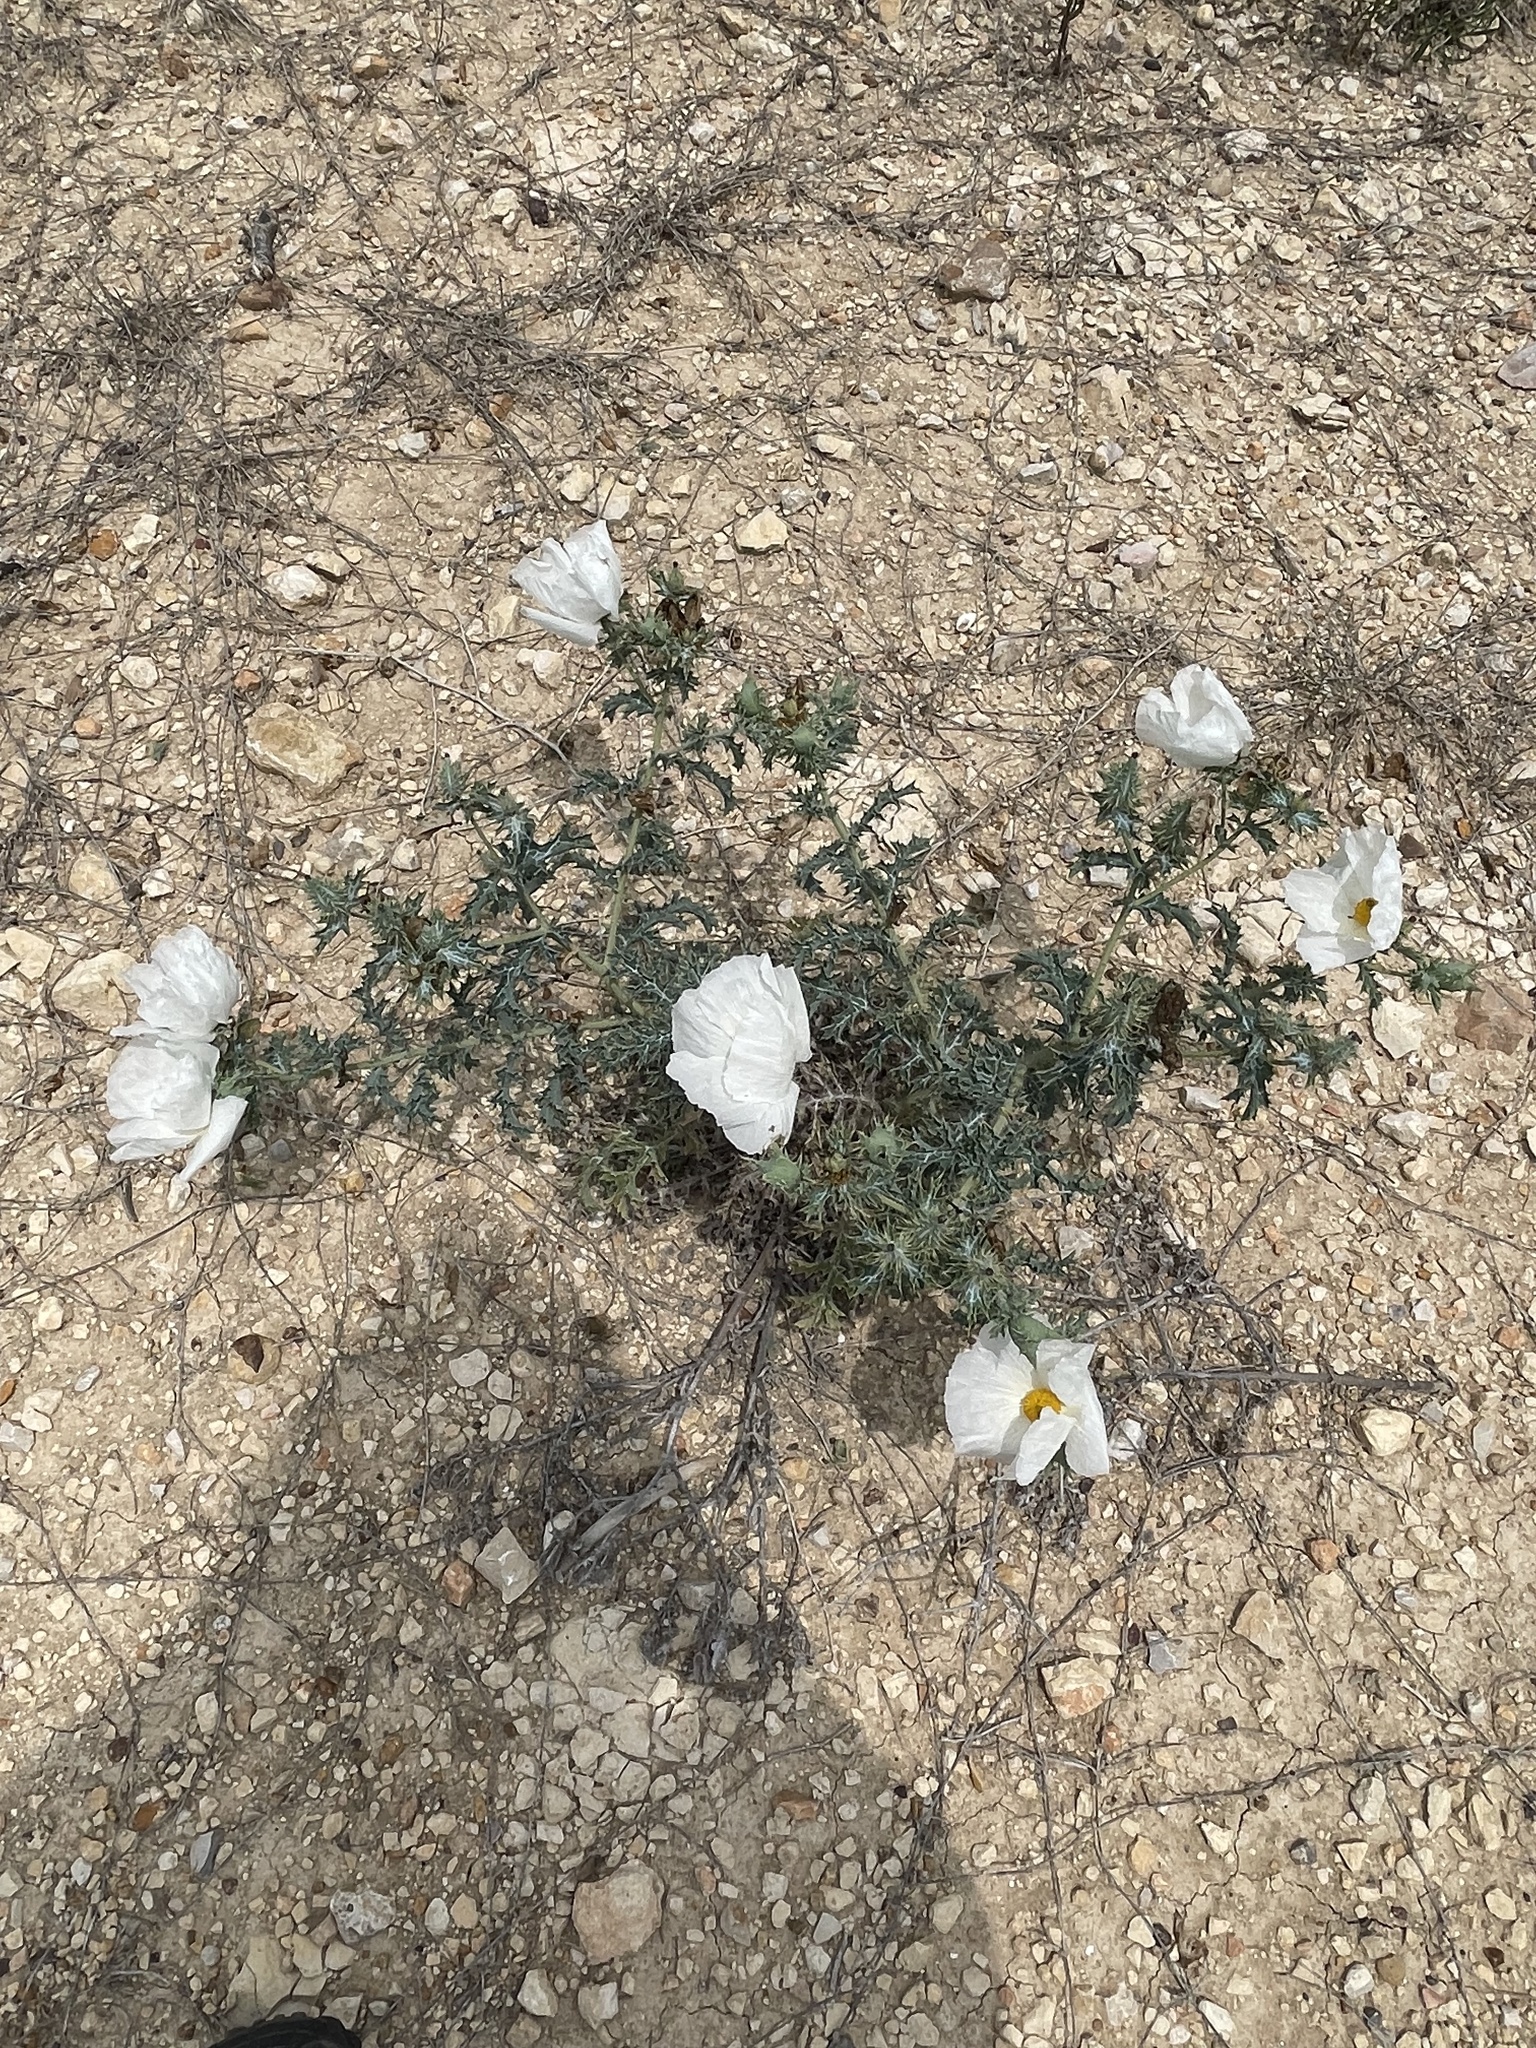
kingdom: Plantae
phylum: Tracheophyta
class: Magnoliopsida
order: Ranunculales
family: Papaveraceae
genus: Argemone
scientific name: Argemone aurantiaca
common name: Texas prickly-poppy
